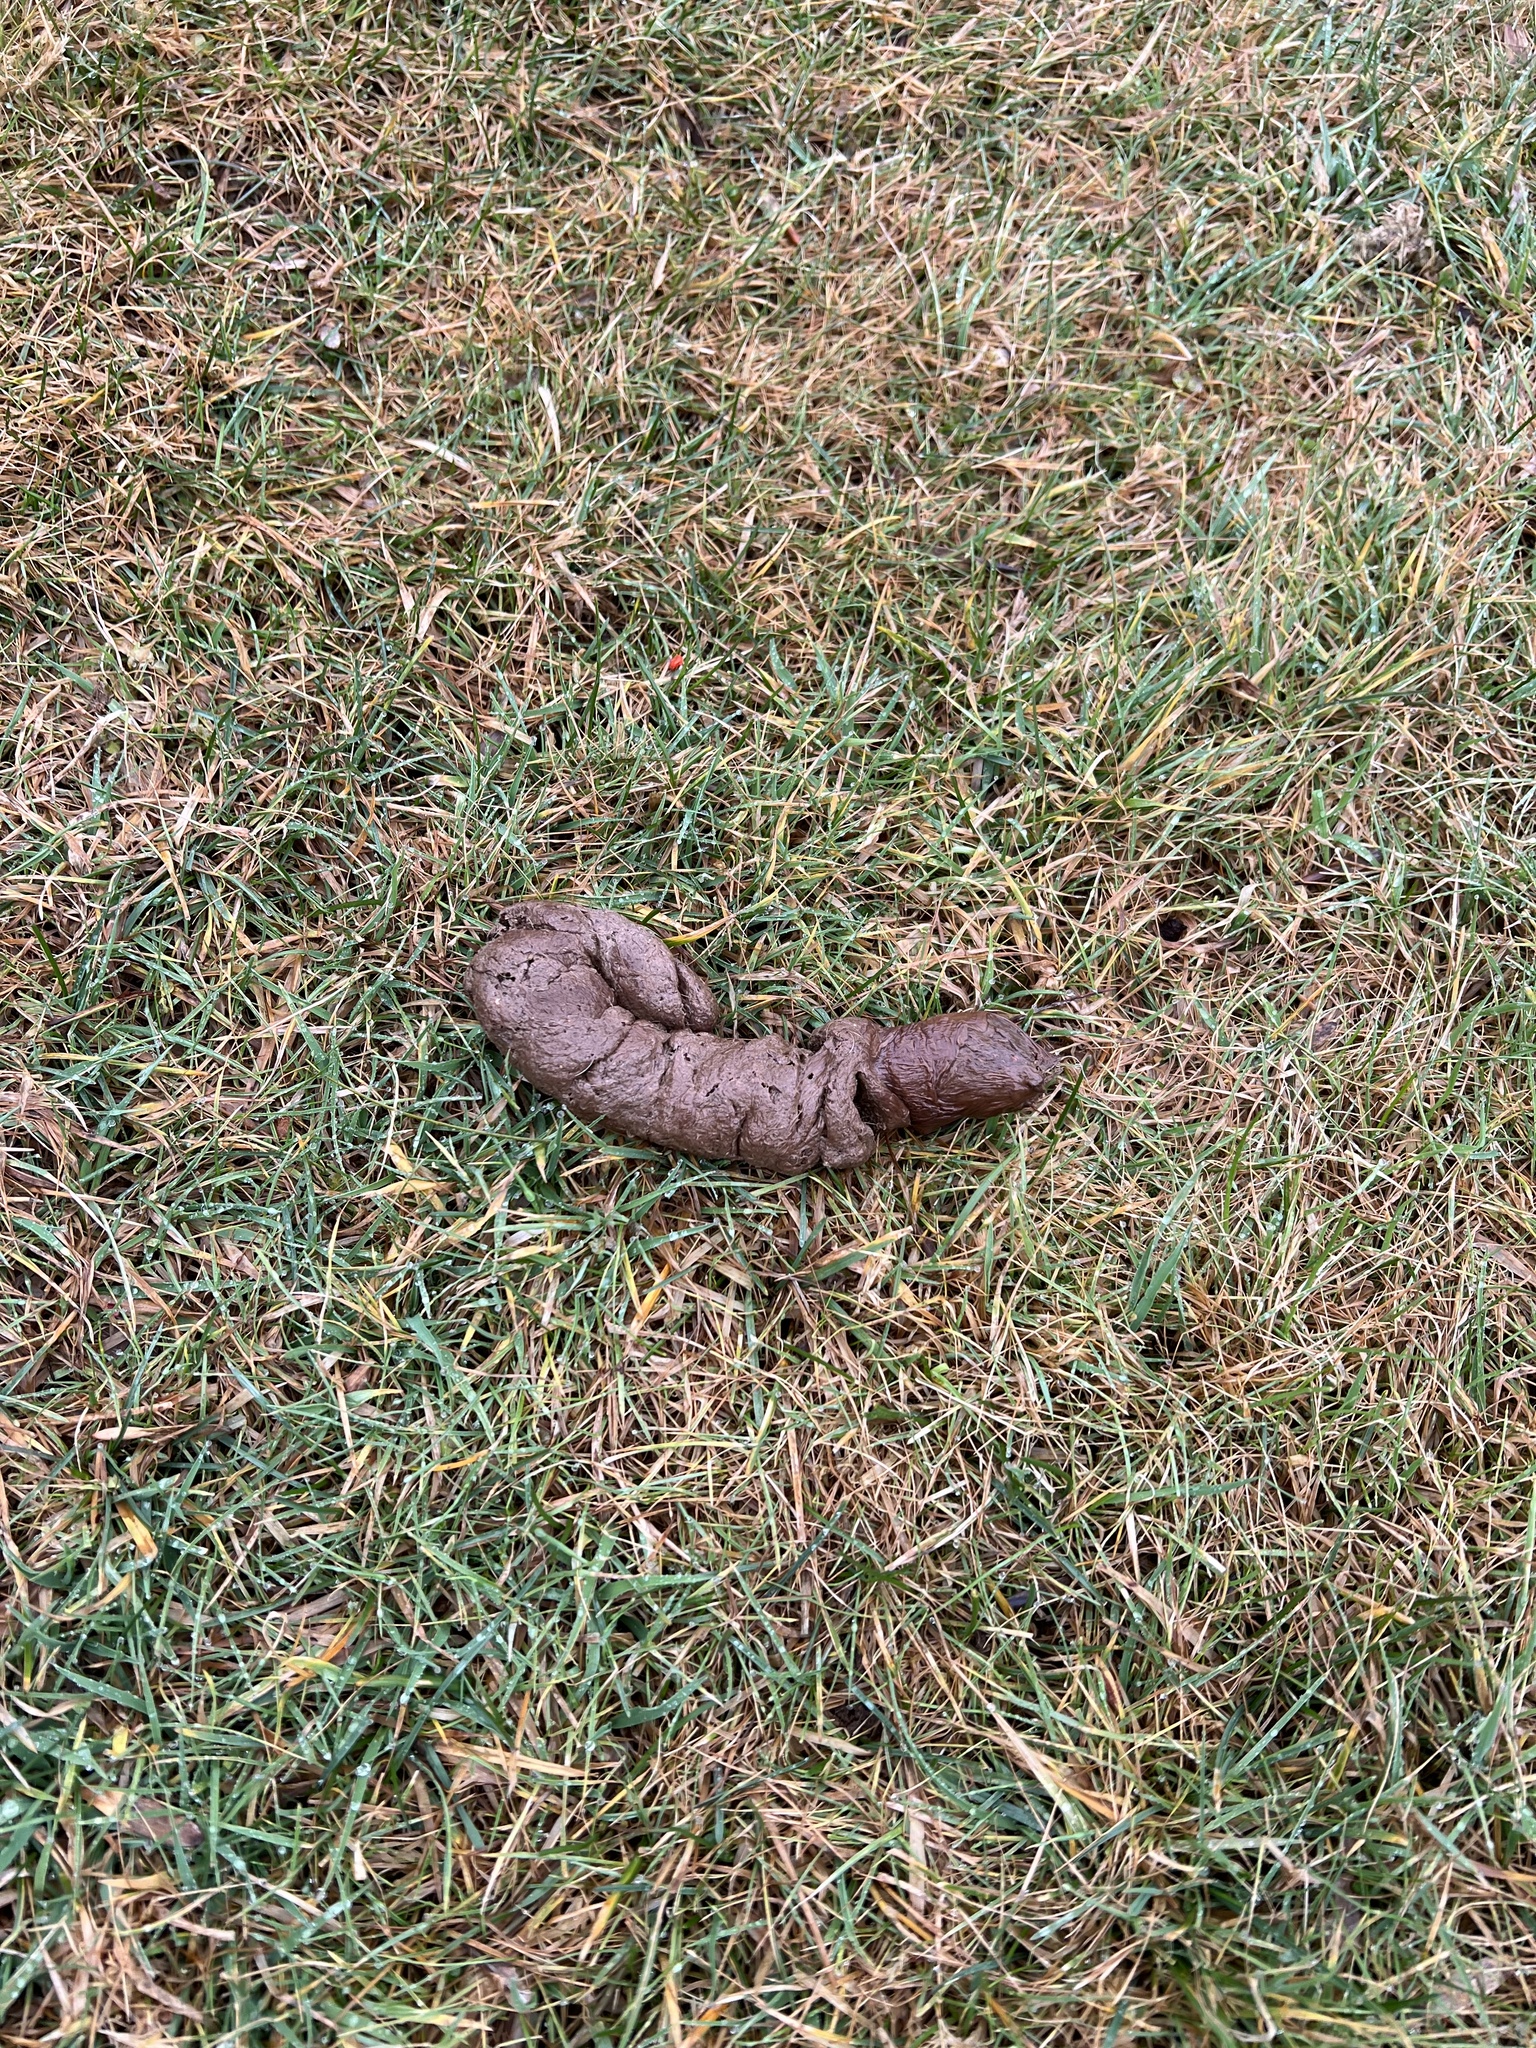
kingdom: Animalia
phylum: Chordata
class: Mammalia
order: Carnivora
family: Canidae
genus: Canis
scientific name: Canis latrans
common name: Coyote
